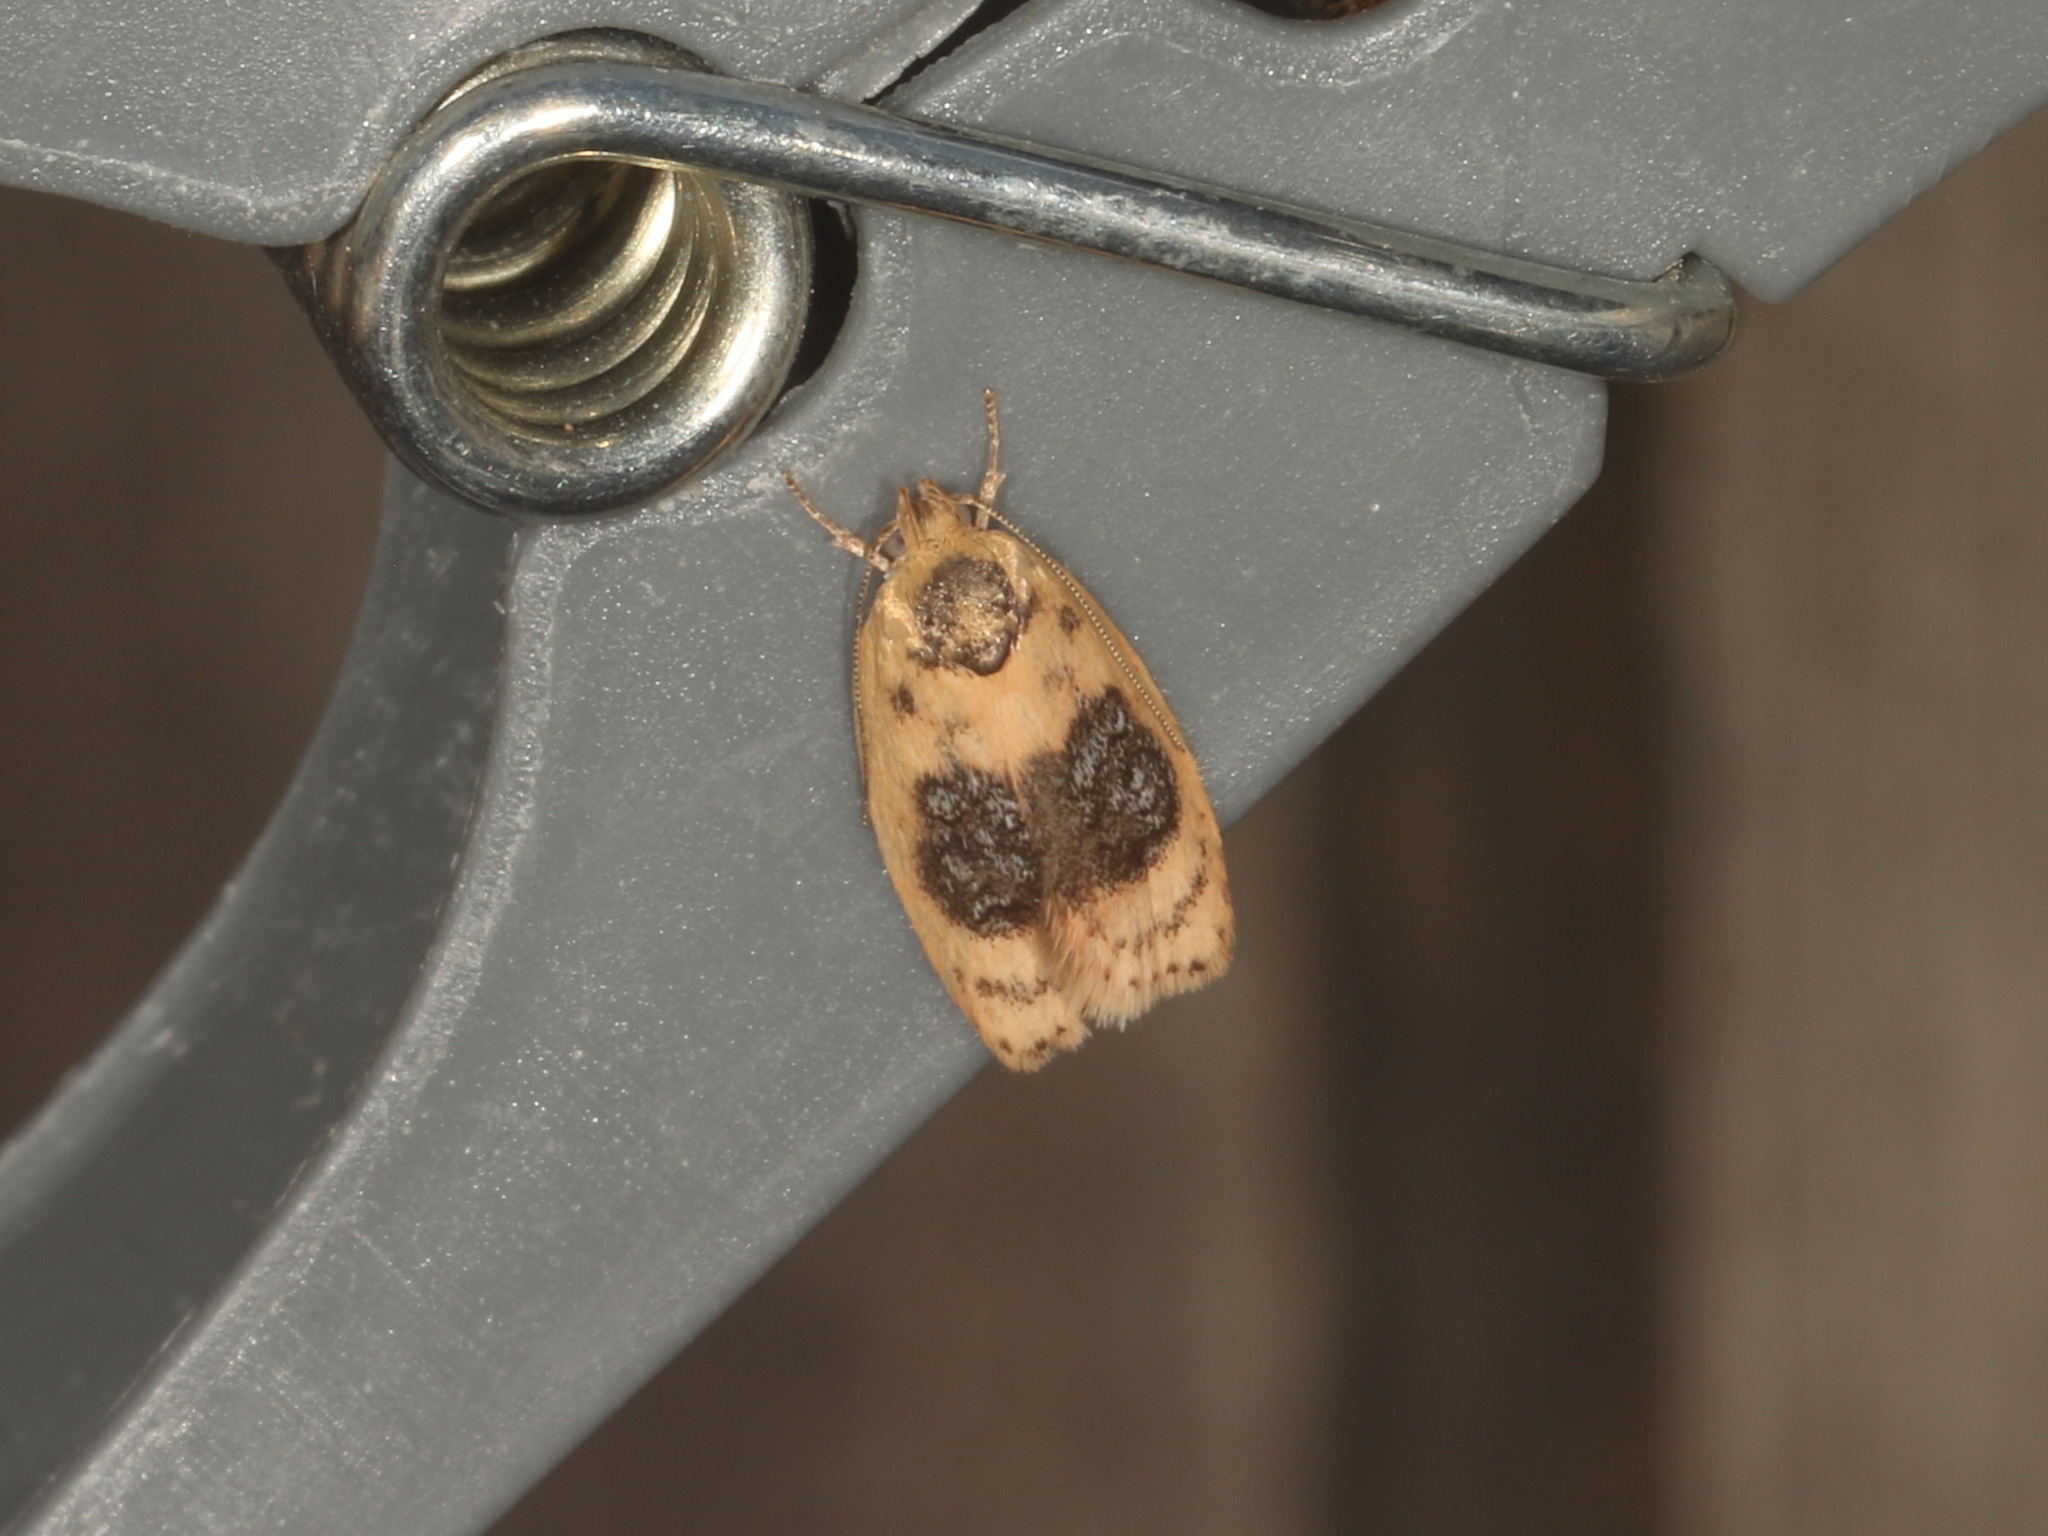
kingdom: Animalia
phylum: Arthropoda
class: Insecta
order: Lepidoptera
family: Oecophoridae
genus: Garrha
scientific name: Garrha ocellifera
